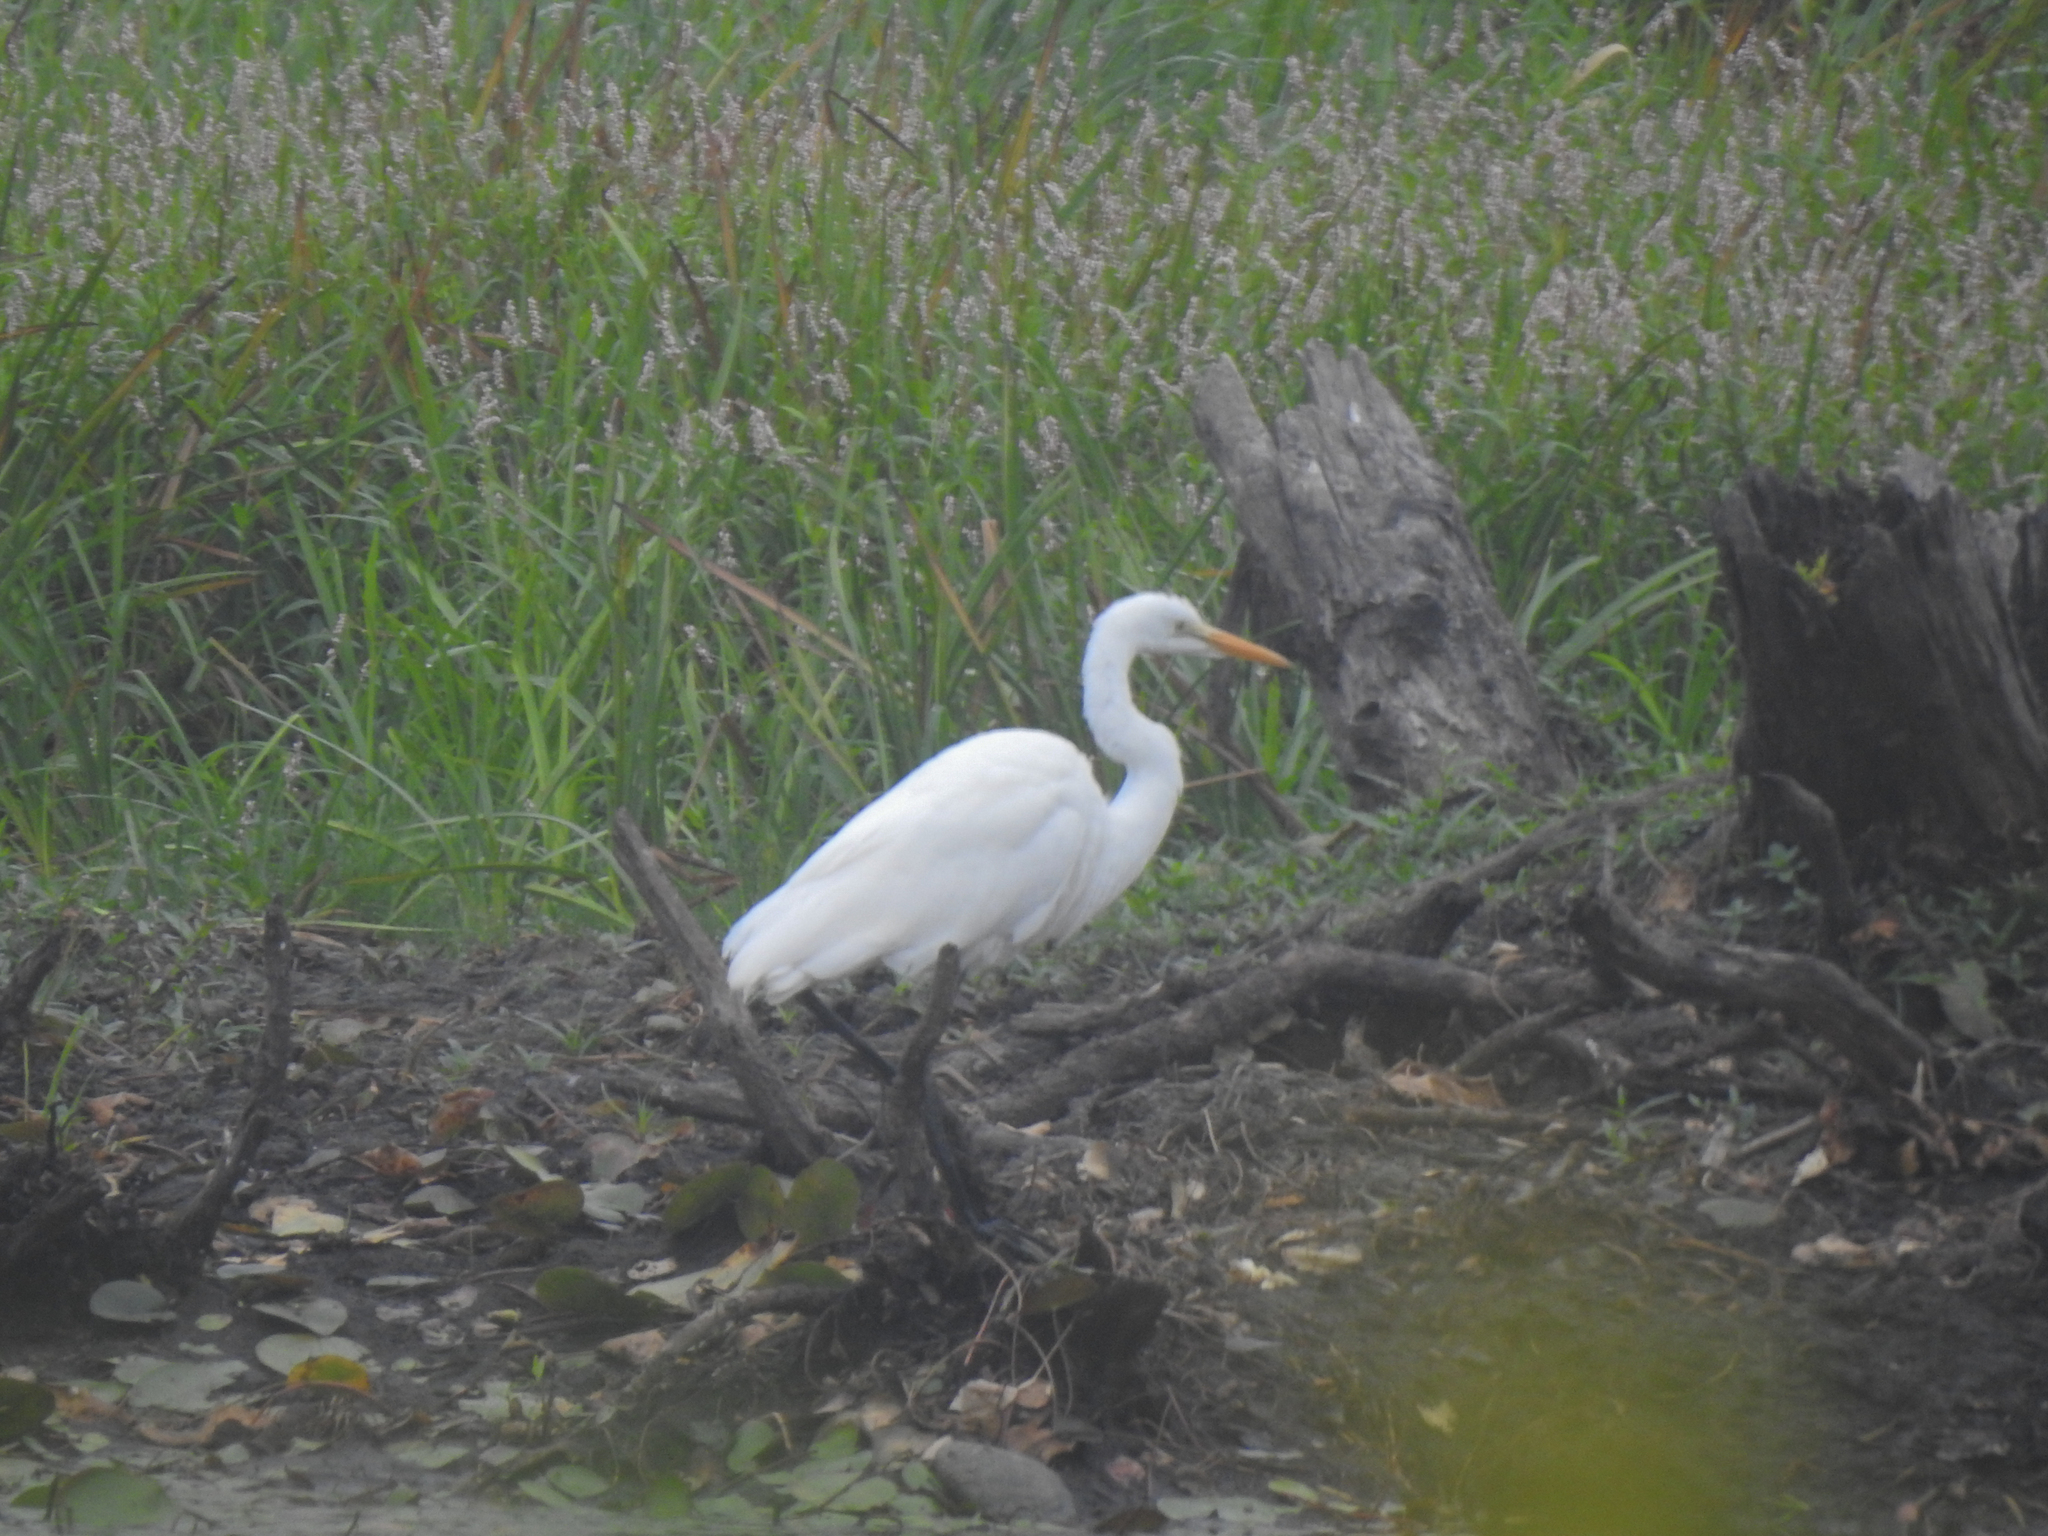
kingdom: Animalia
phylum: Chordata
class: Aves
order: Pelecaniformes
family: Ardeidae
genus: Ardea
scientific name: Ardea alba
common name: Great egret
